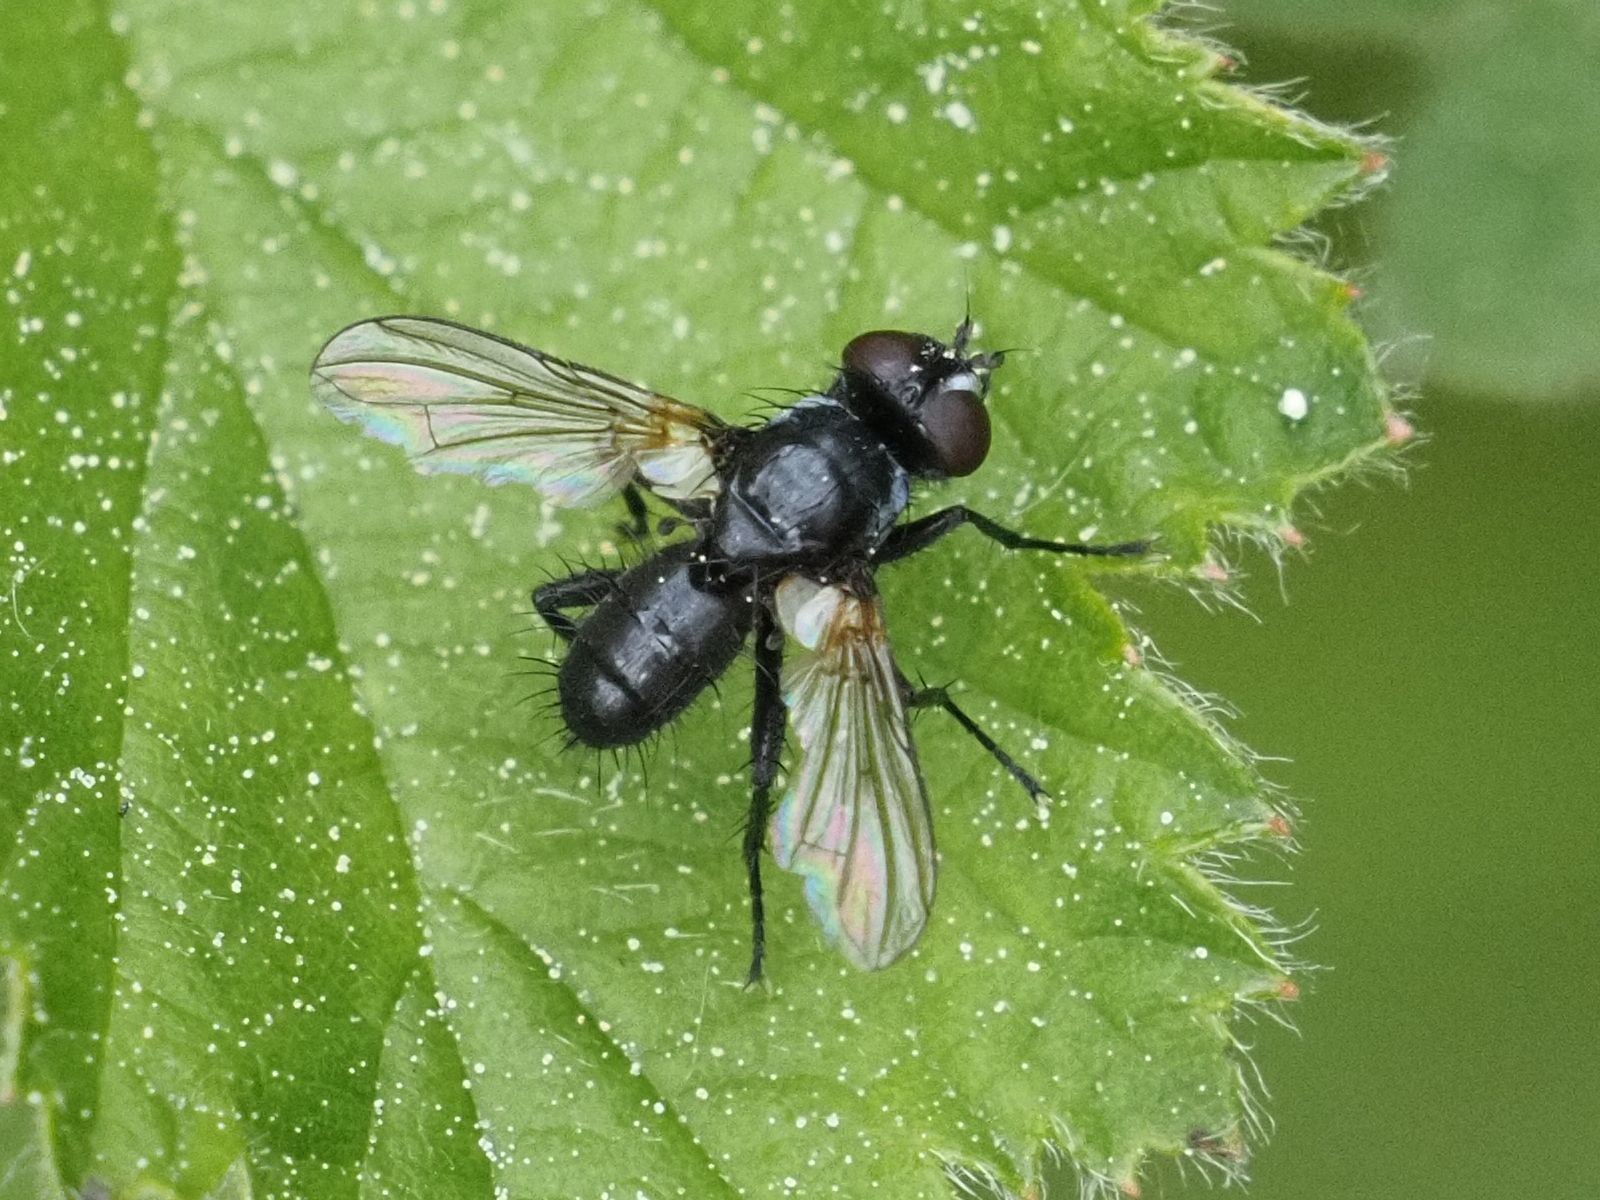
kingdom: Animalia
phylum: Arthropoda
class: Insecta
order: Diptera
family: Tachinidae
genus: Phania
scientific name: Phania funesta
